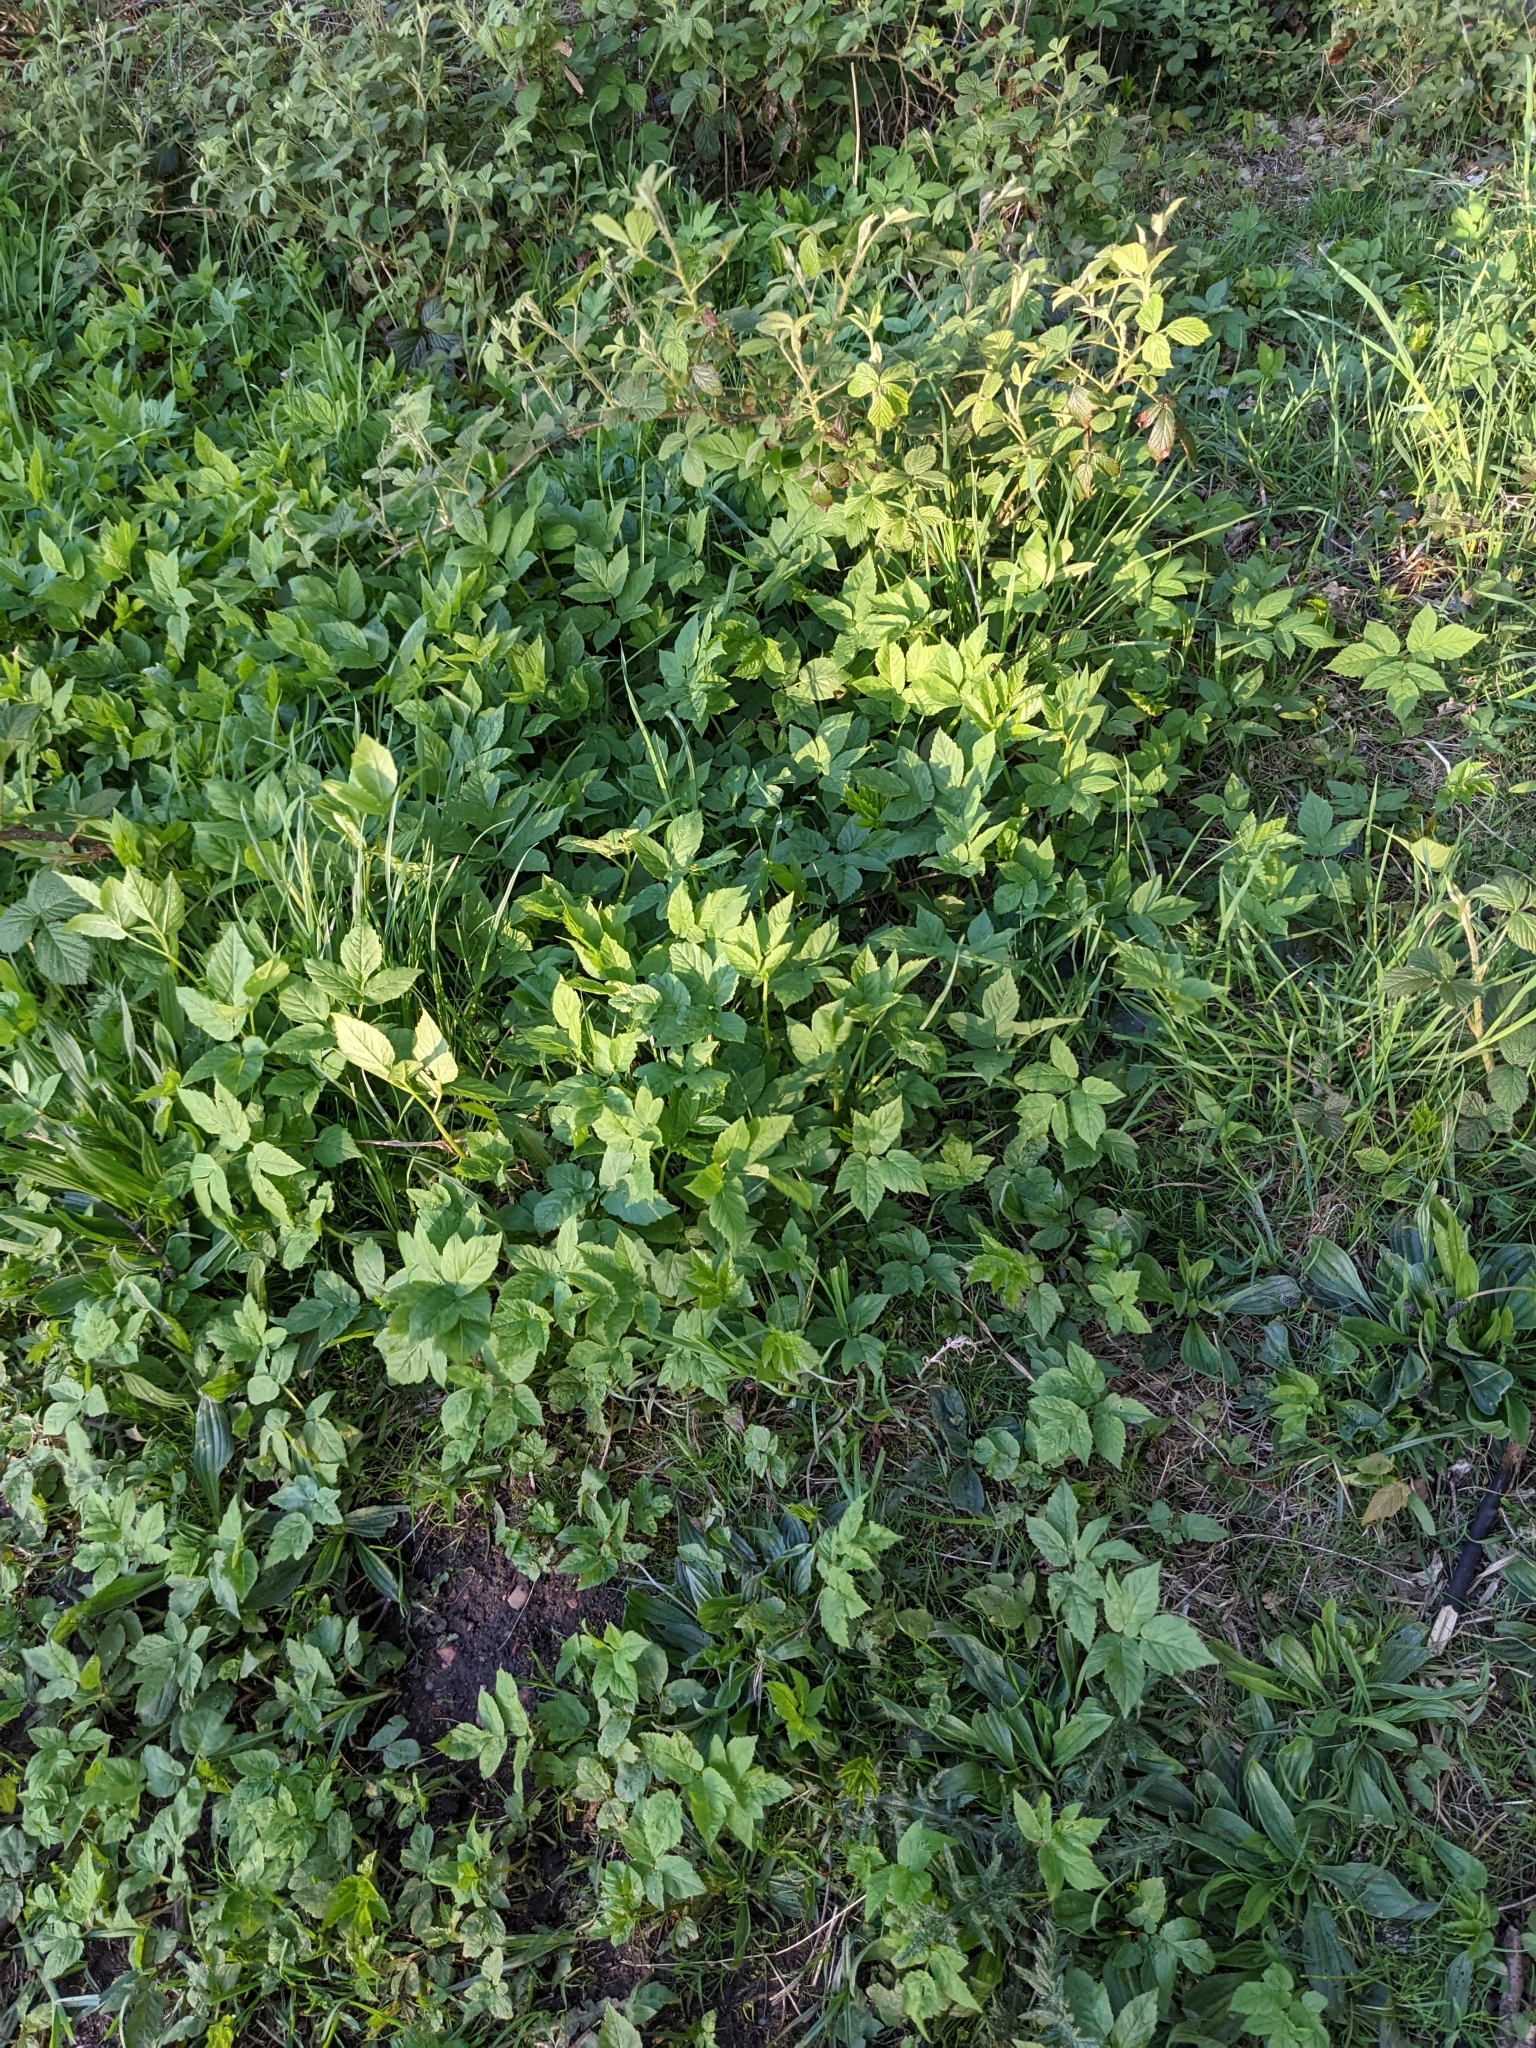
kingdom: Plantae
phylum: Tracheophyta
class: Magnoliopsida
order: Apiales
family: Apiaceae
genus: Aegopodium
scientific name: Aegopodium podagraria
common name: Ground-elder
